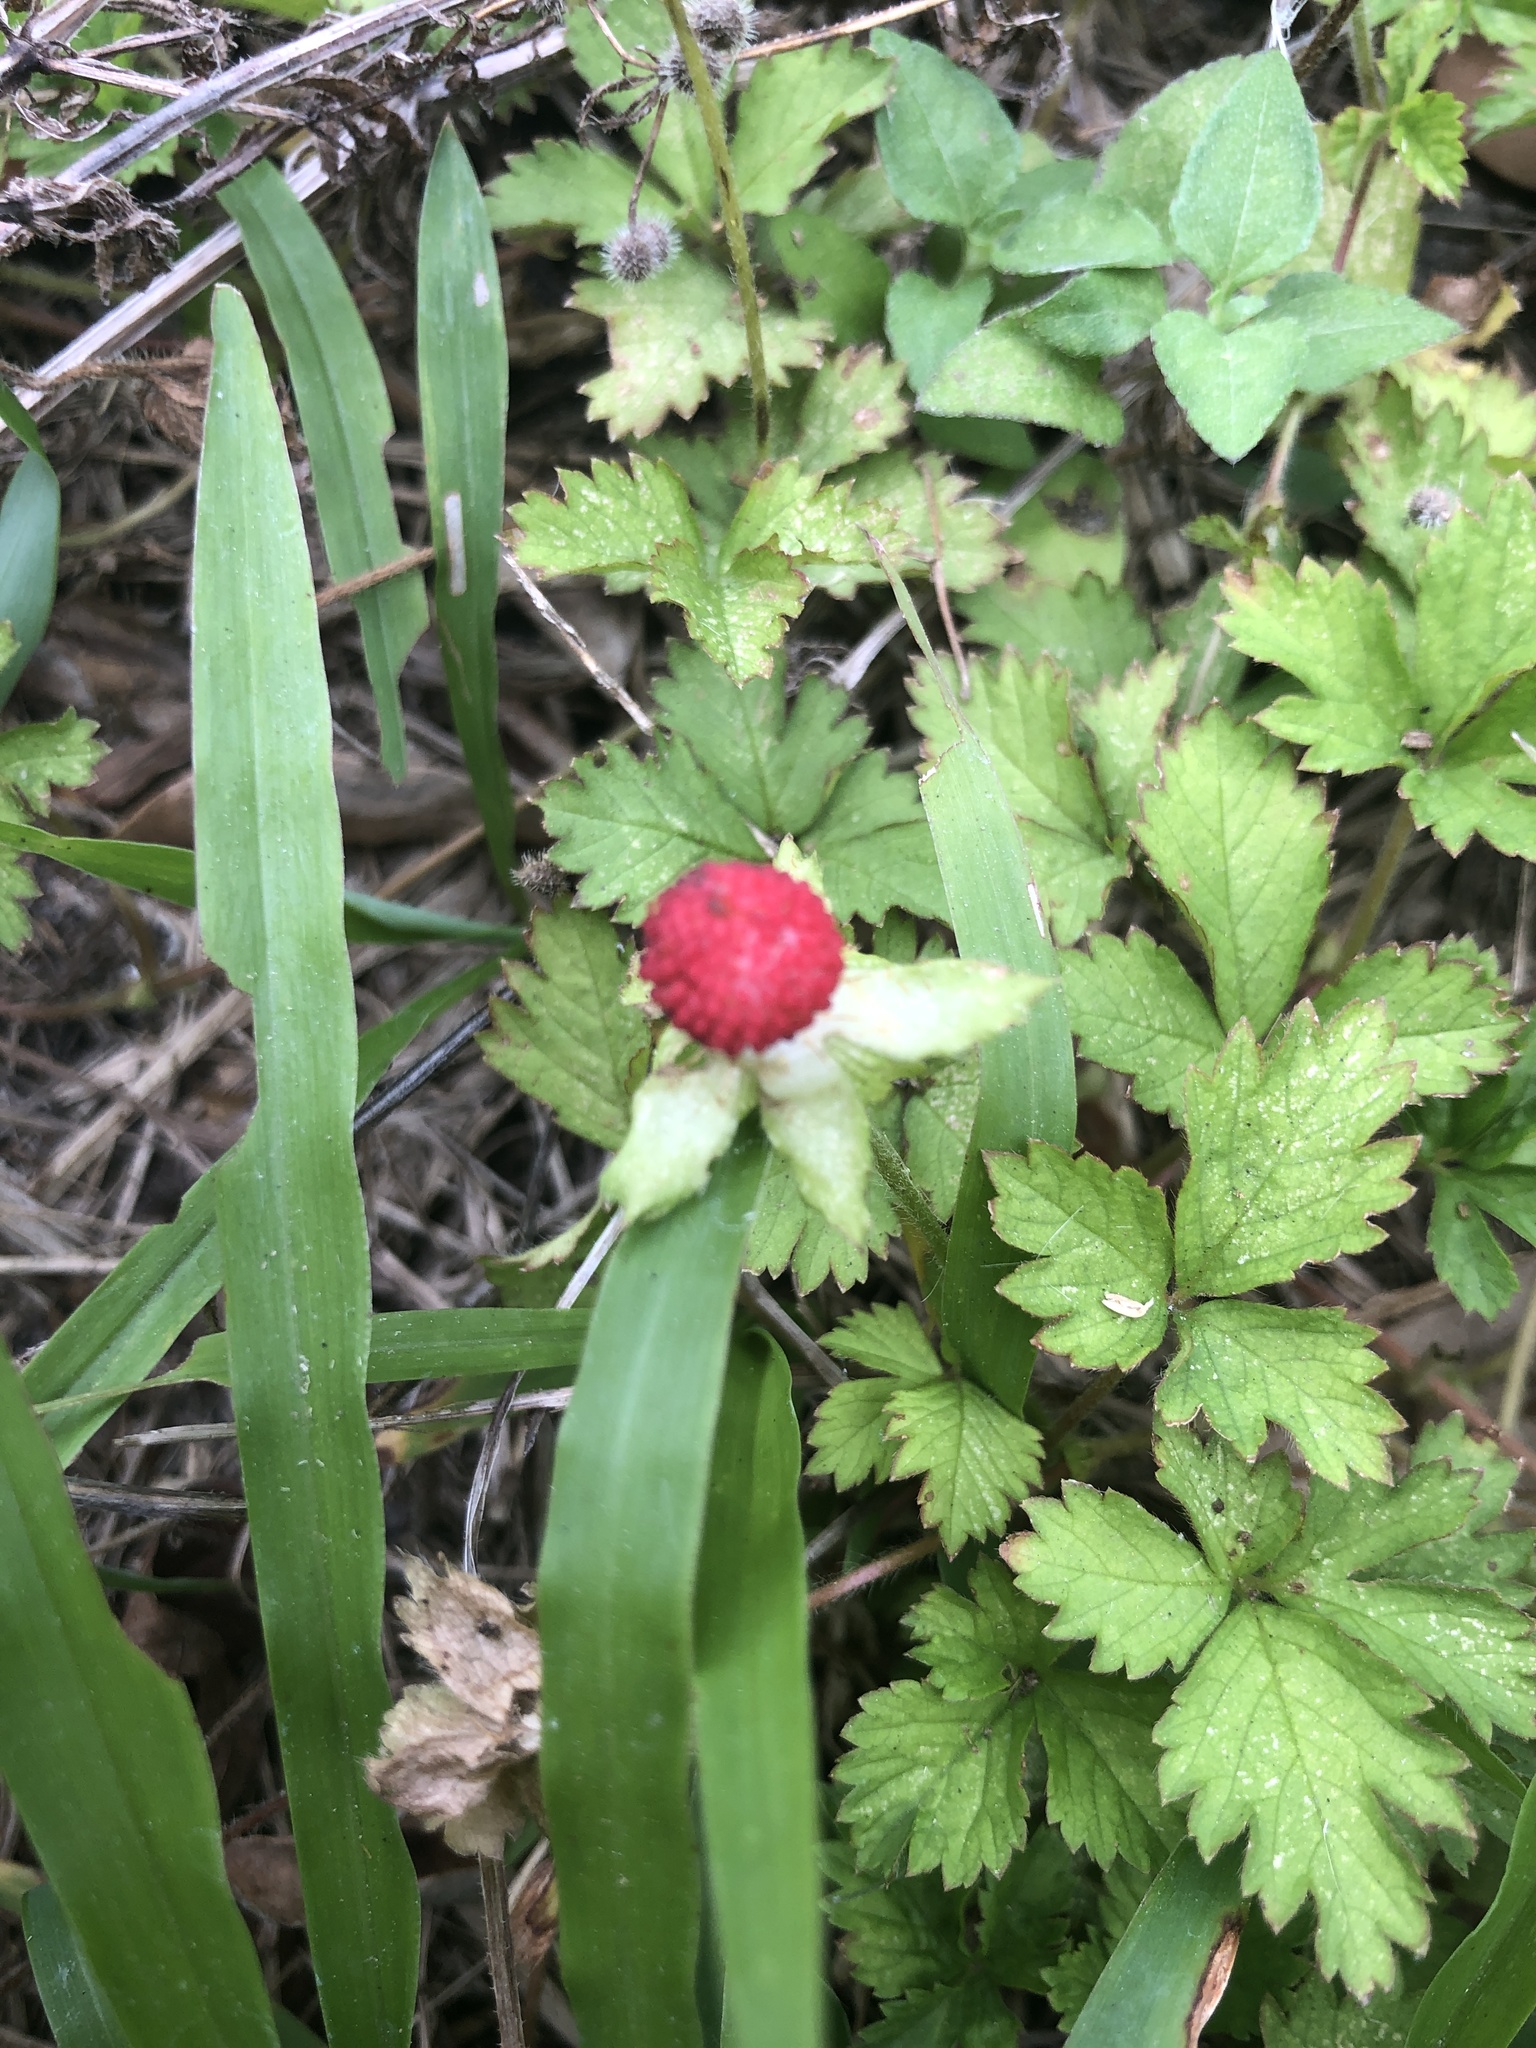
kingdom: Plantae
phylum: Tracheophyta
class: Magnoliopsida
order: Rosales
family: Rosaceae
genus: Potentilla
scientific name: Potentilla indica
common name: Yellow-flowered strawberry
